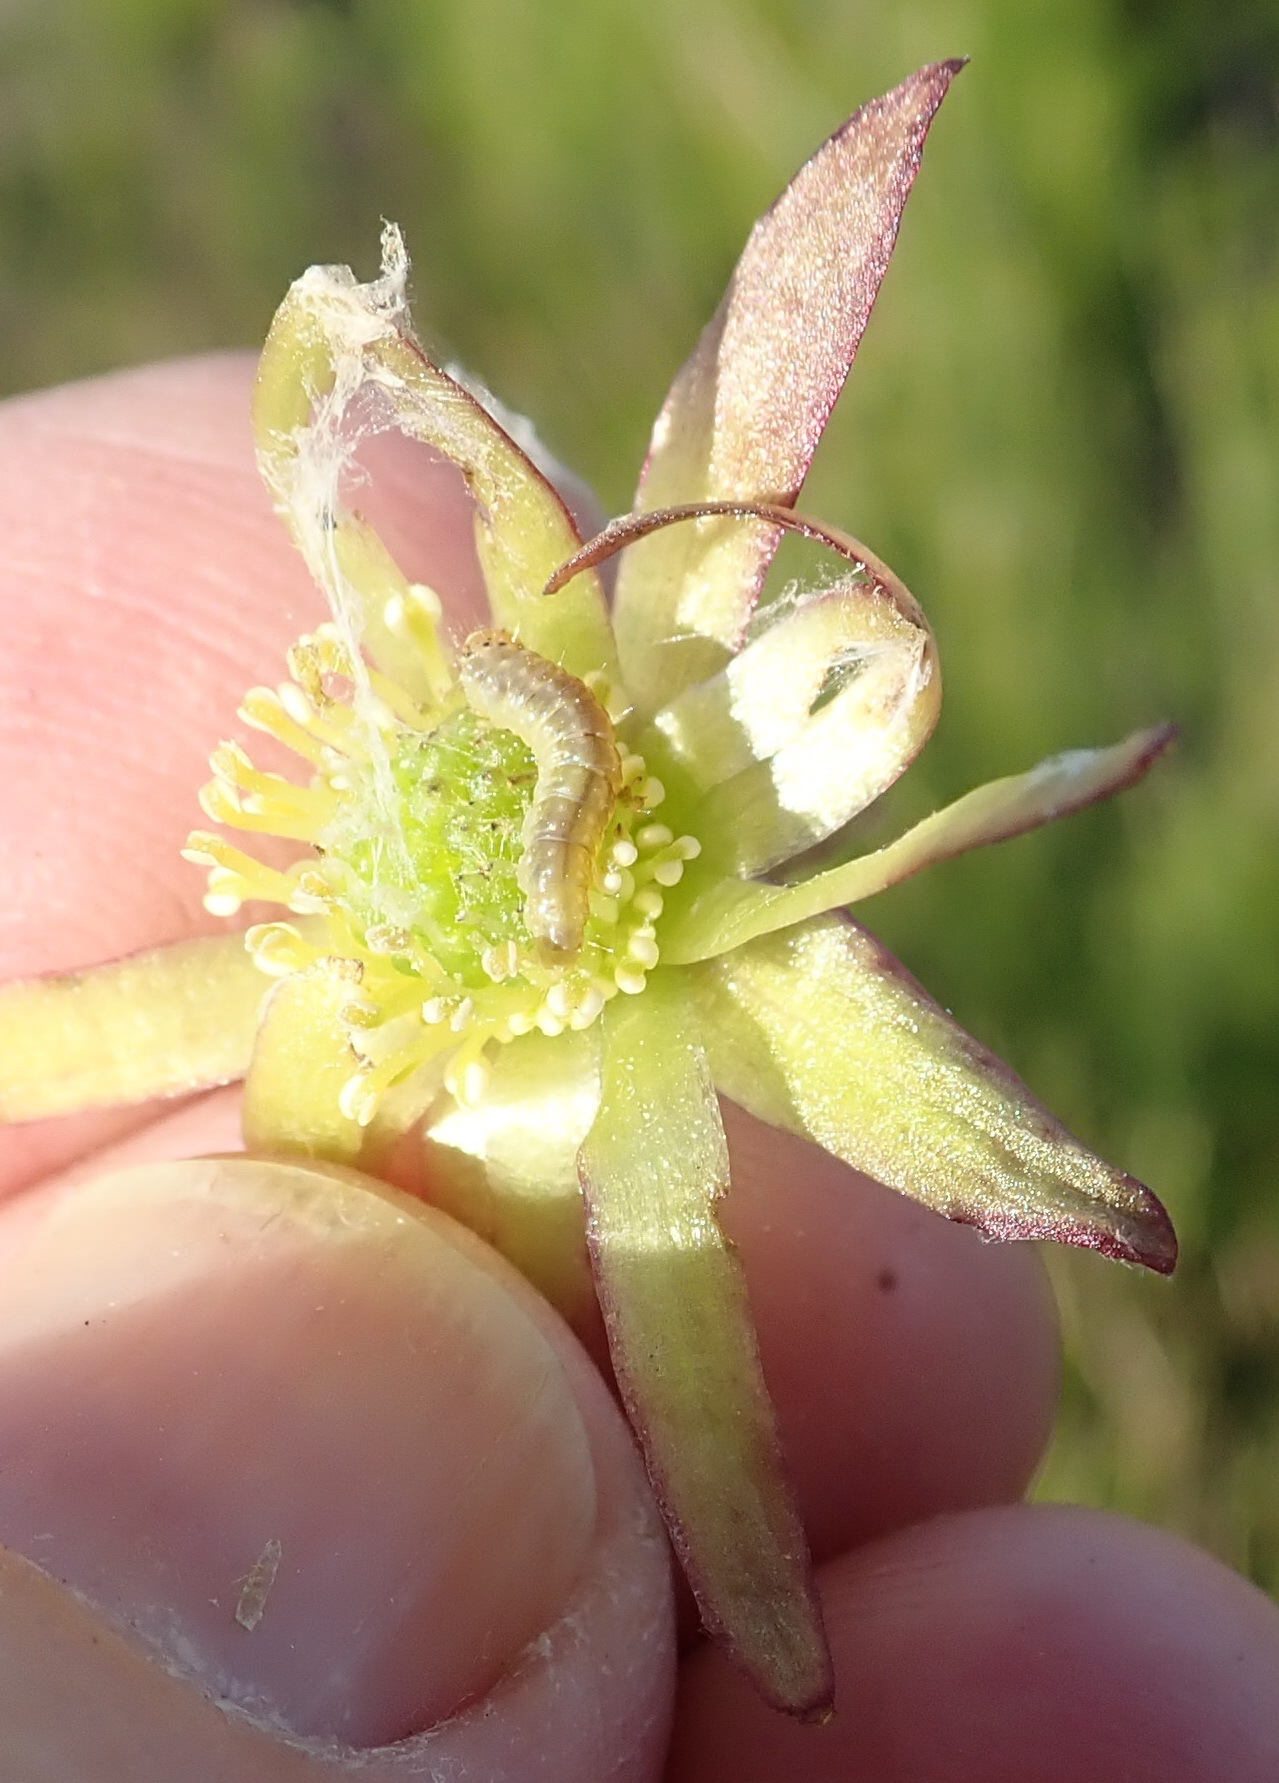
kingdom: Plantae
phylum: Tracheophyta
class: Magnoliopsida
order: Ranunculales
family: Ranunculaceae
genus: Knowltonia
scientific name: Knowltonia vesicatoria
